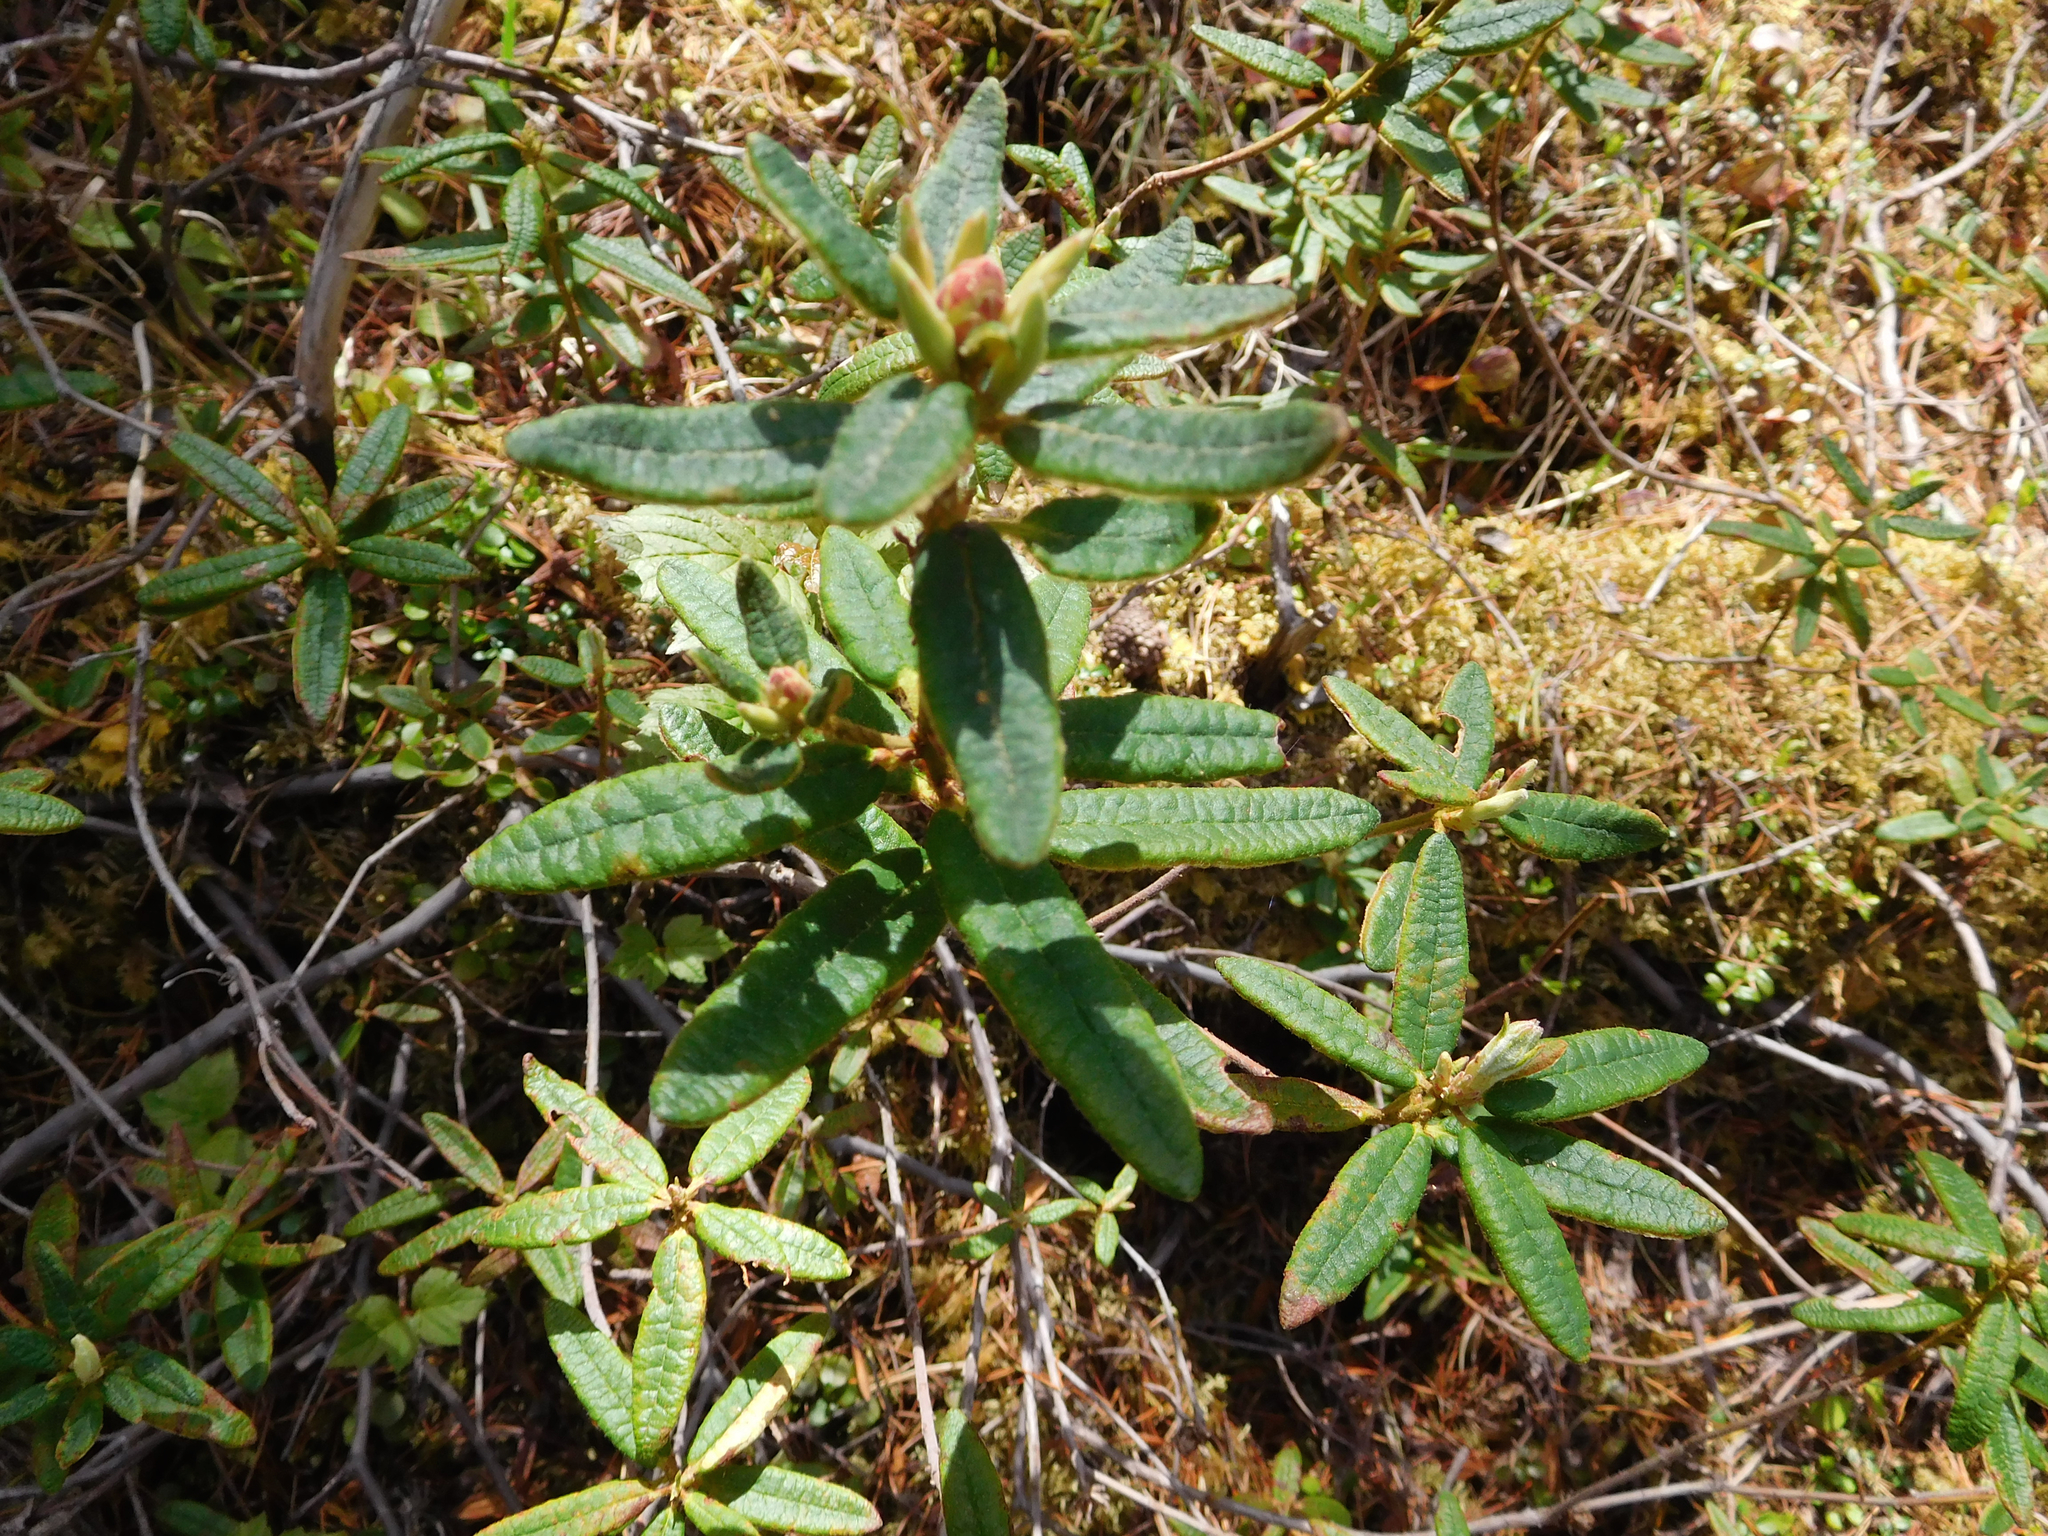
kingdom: Plantae
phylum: Tracheophyta
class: Magnoliopsida
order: Ericales
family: Ericaceae
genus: Rhododendron
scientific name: Rhododendron groenlandicum
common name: Bog labrador tea
